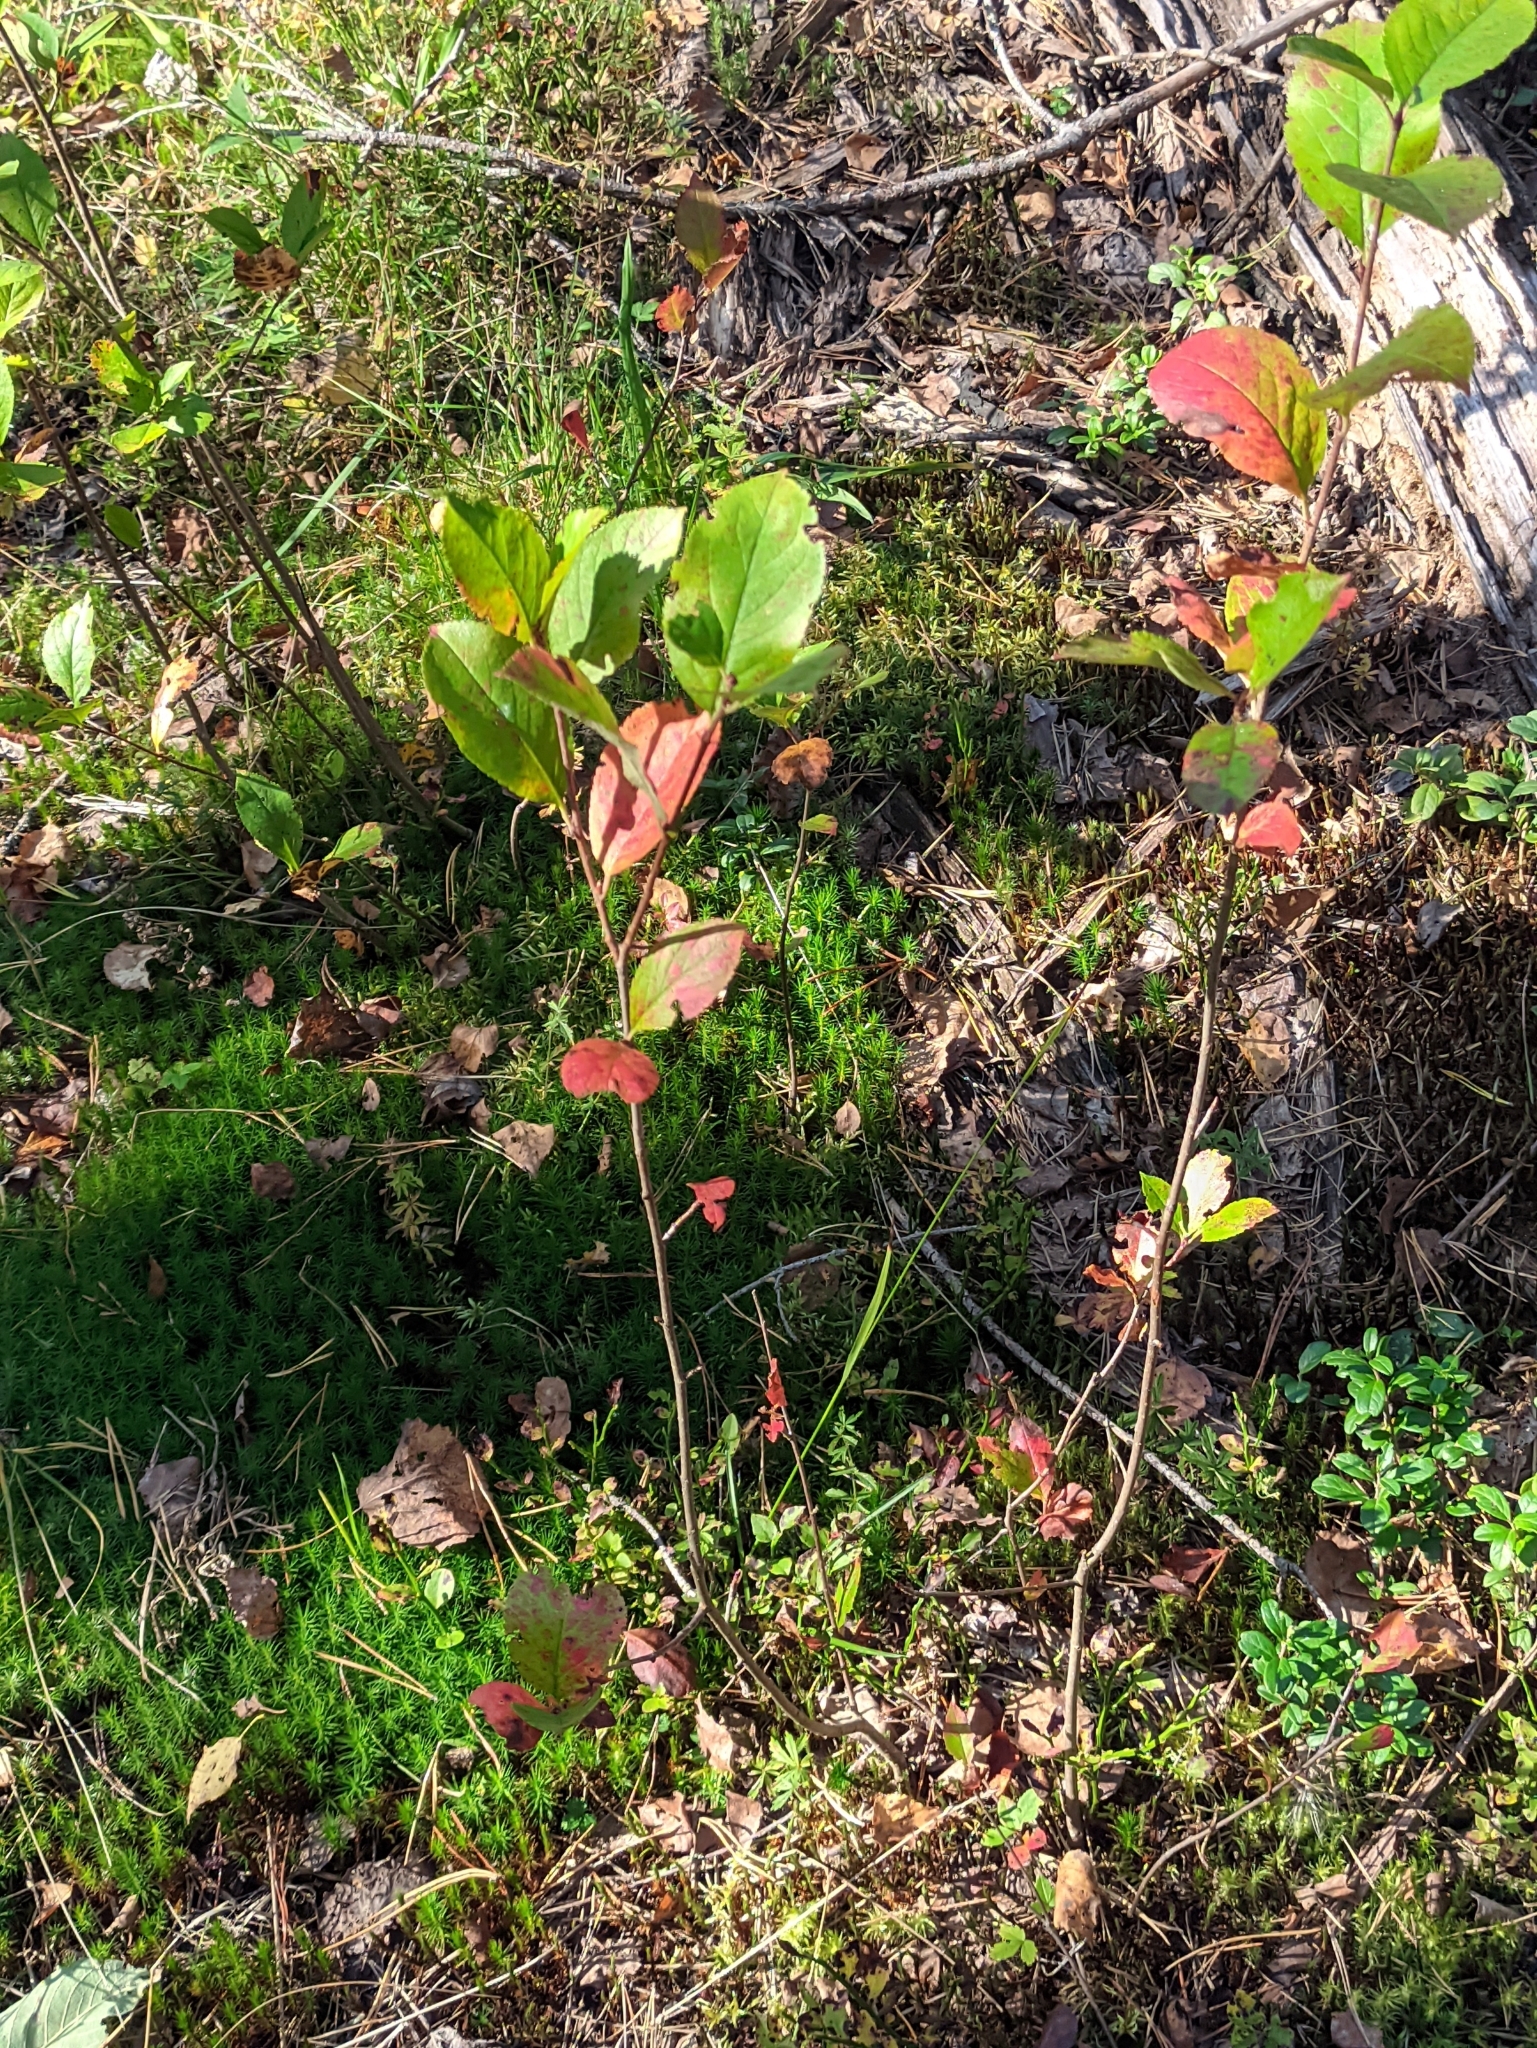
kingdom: Plantae
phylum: Tracheophyta
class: Magnoliopsida
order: Rosales
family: Rosaceae
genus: Sorbaronia
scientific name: Sorbaronia arsenii
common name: Arsène's mountain-ash
